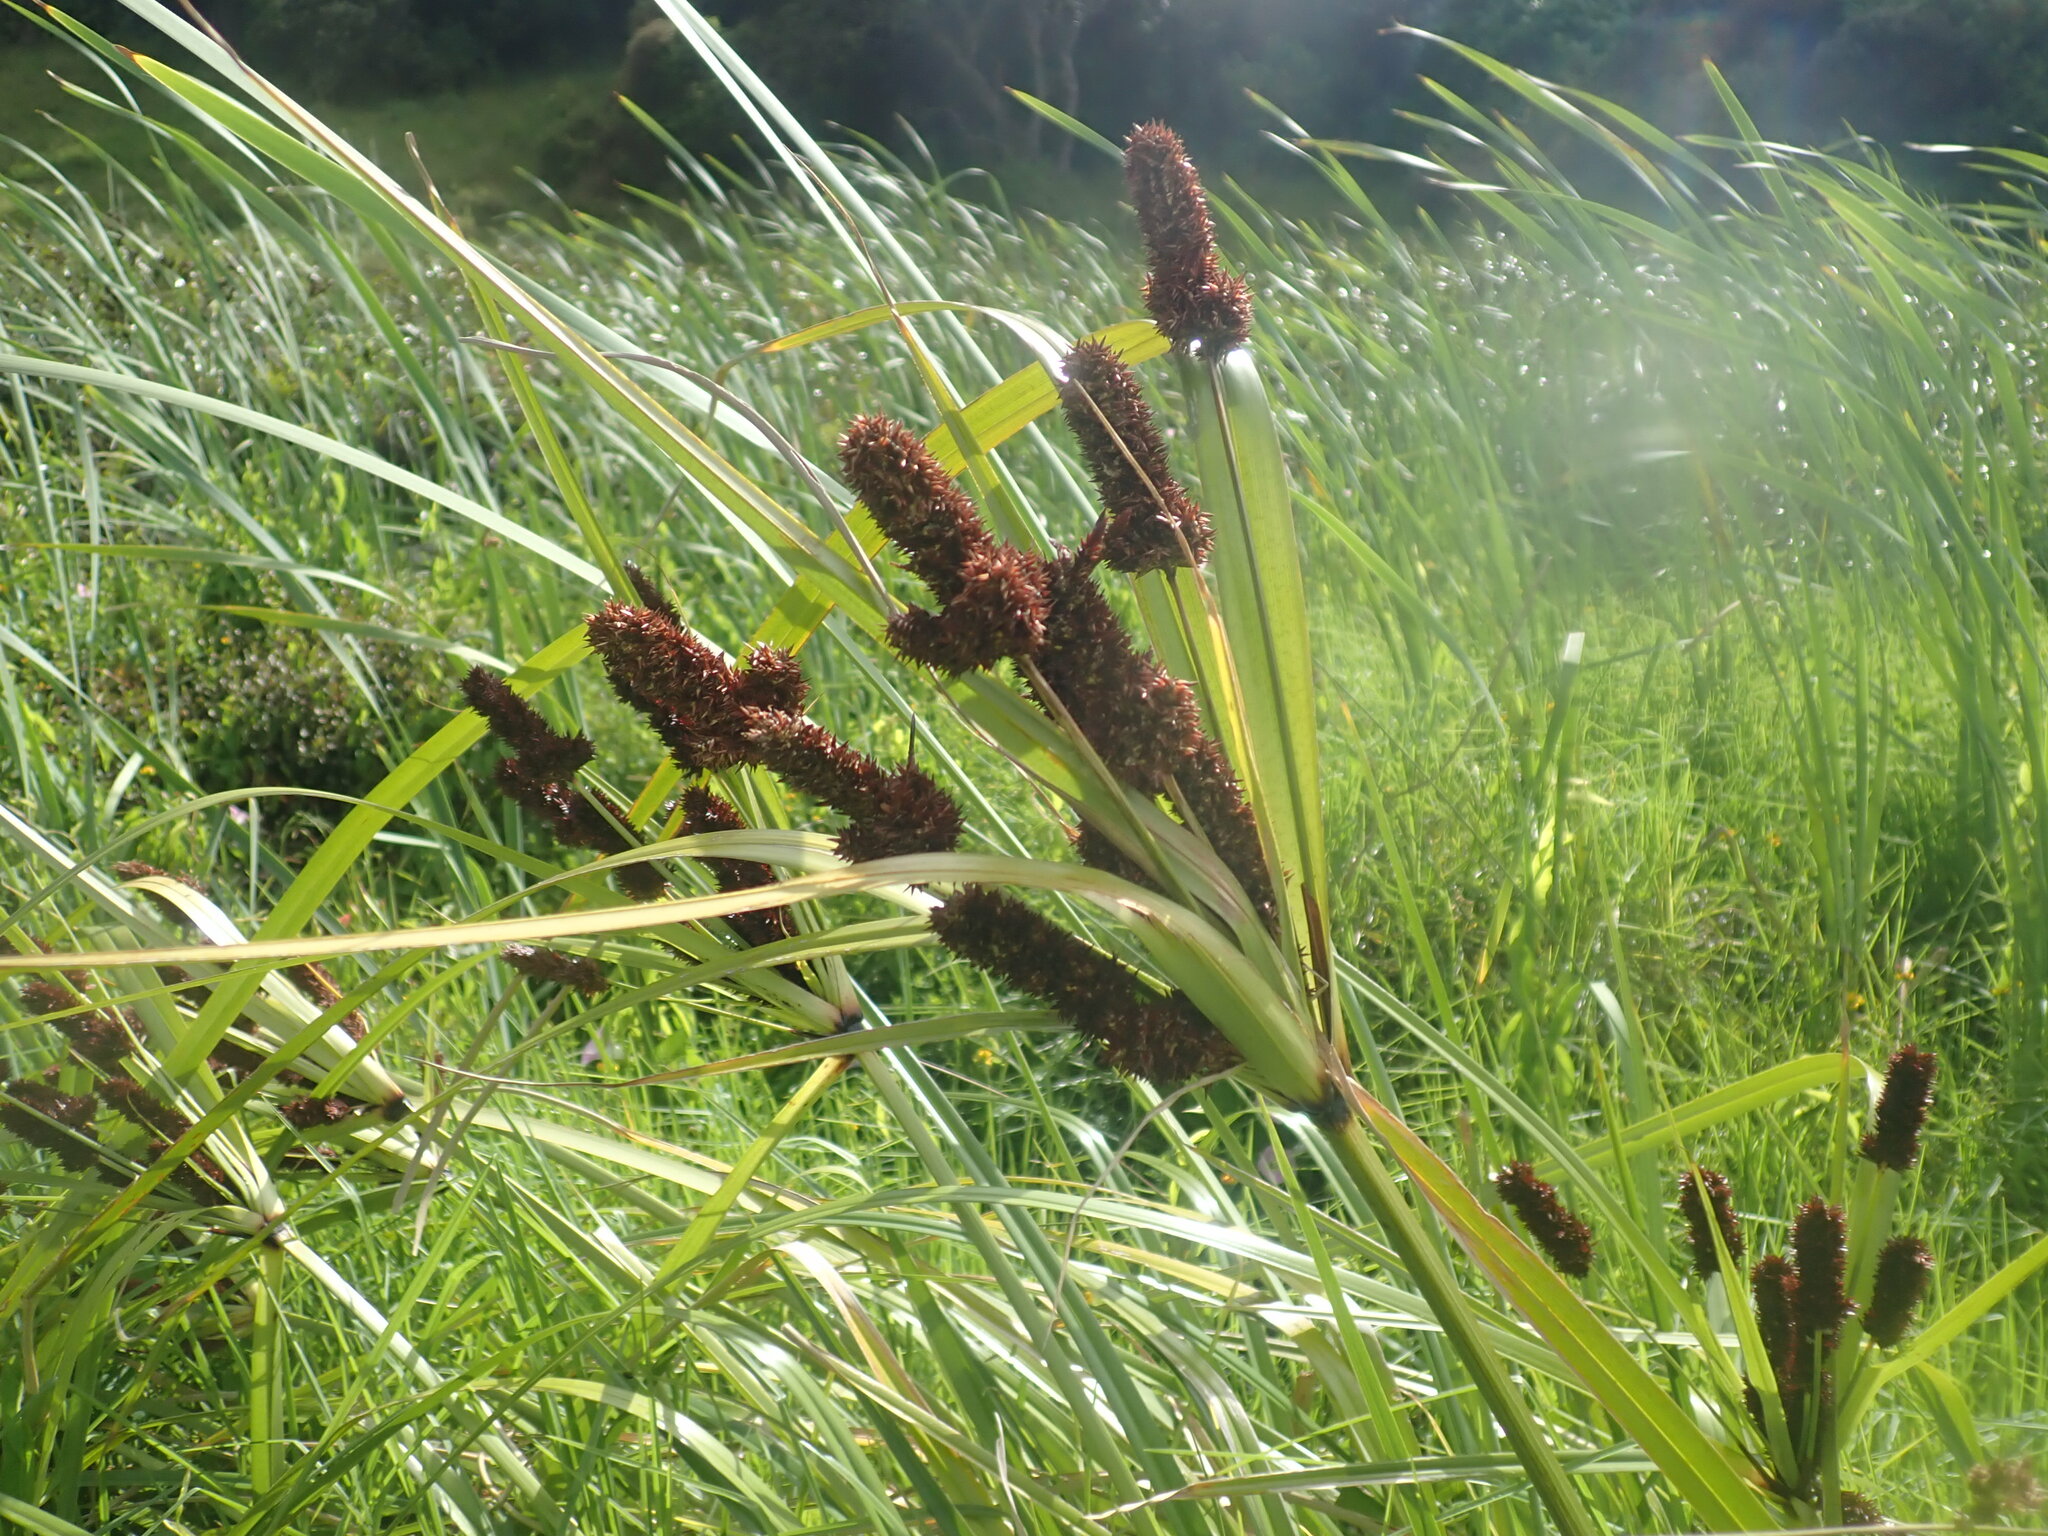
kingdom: Plantae
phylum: Tracheophyta
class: Liliopsida
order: Poales
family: Cyperaceae
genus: Cyperus
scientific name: Cyperus ustulatus
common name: Giant umbrella-sedge
